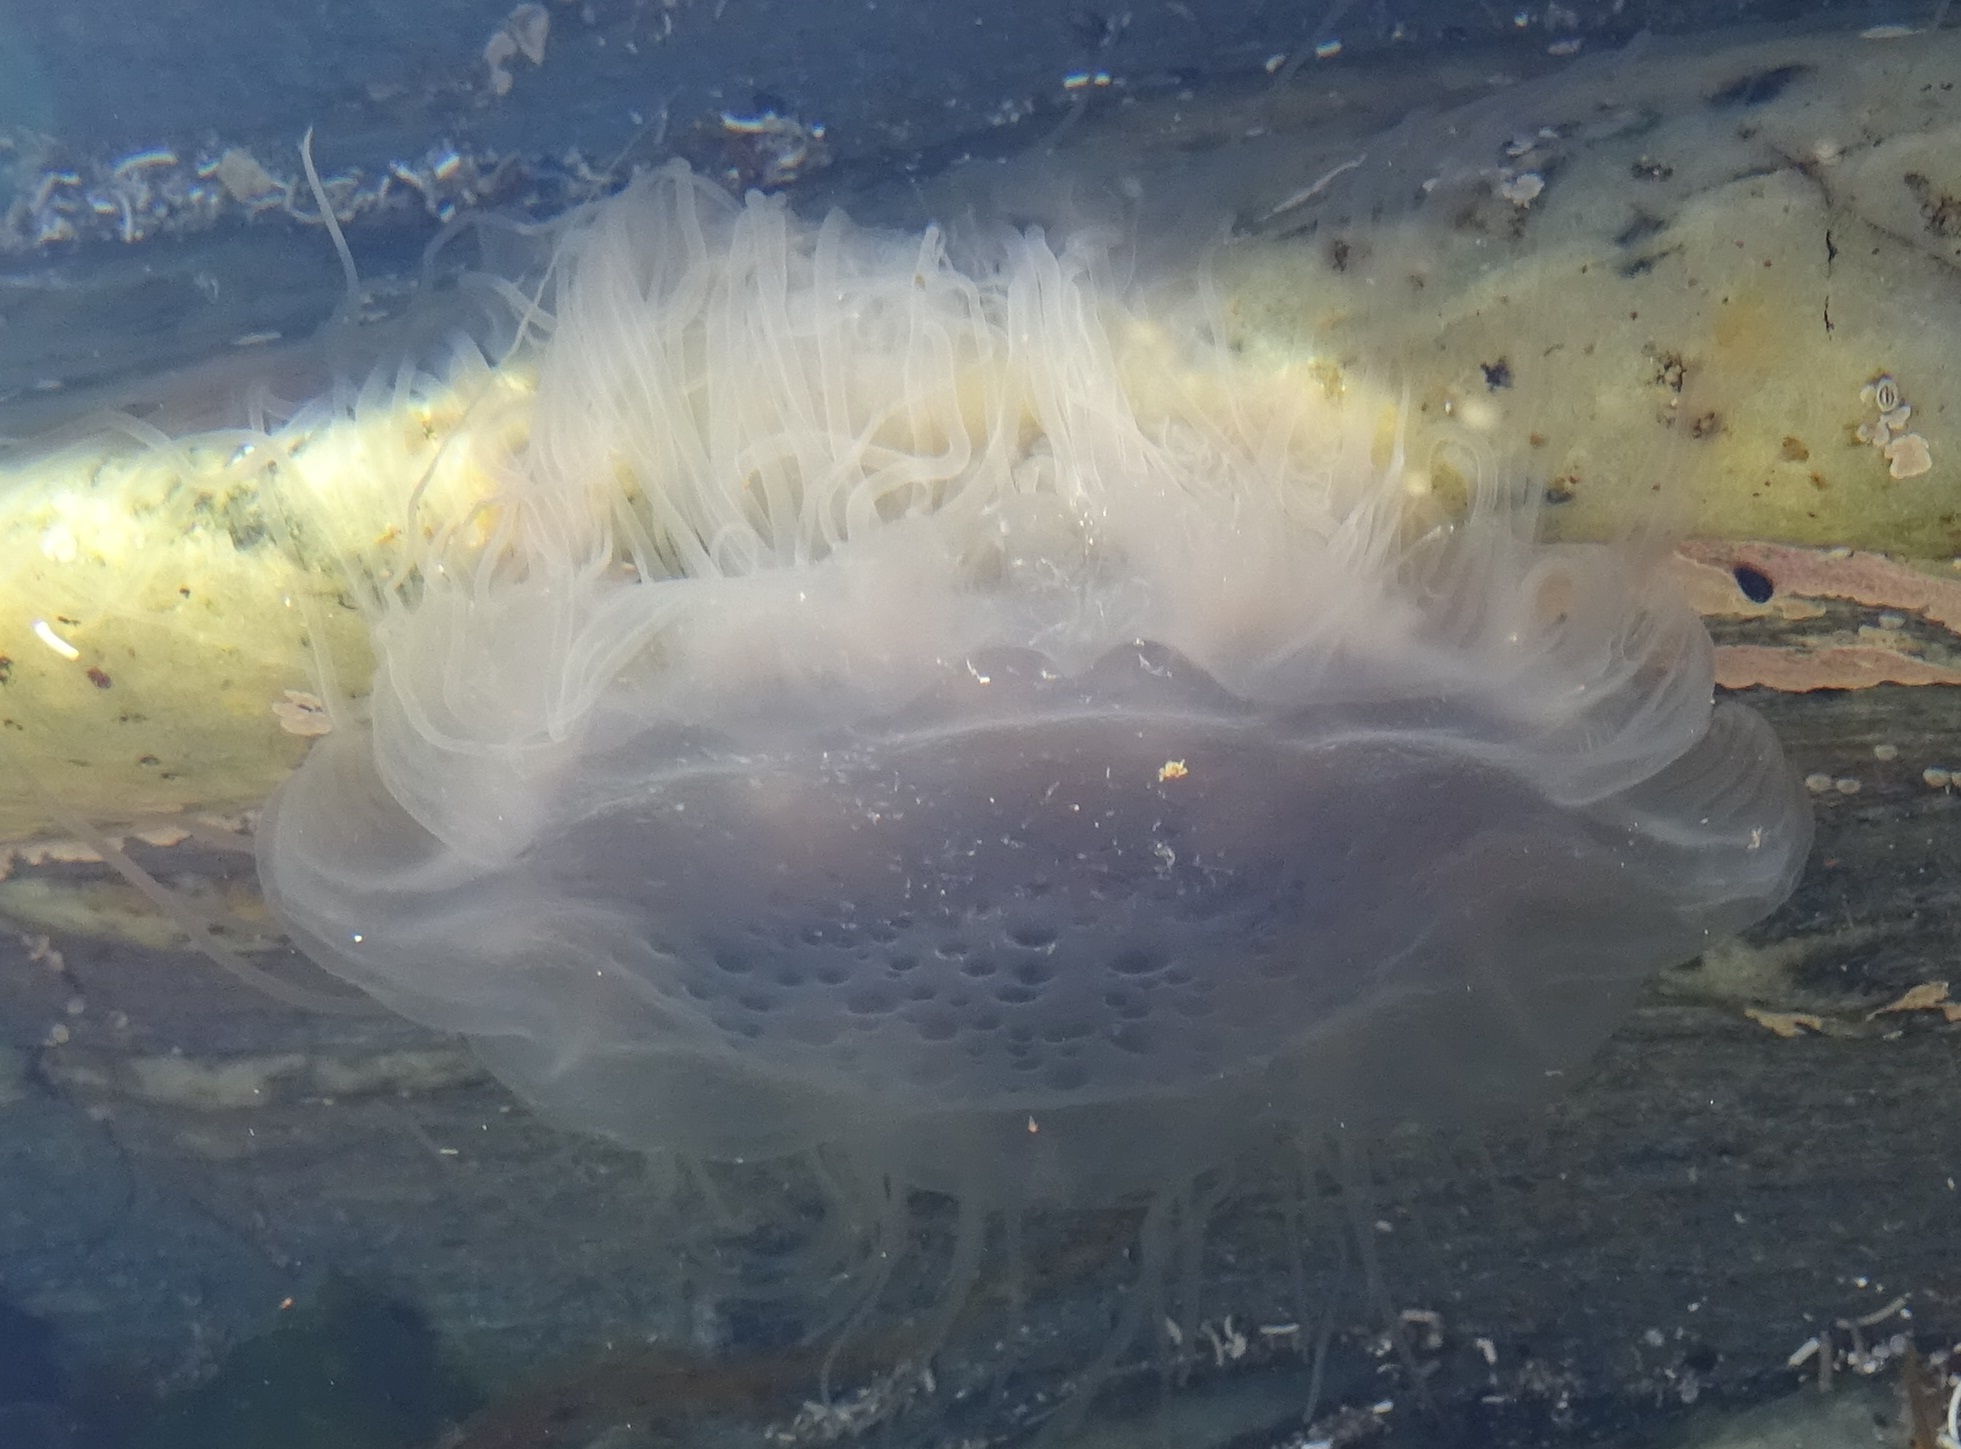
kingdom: Animalia
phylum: Cnidaria
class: Scyphozoa
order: Semaeostomeae
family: Cyaneidae
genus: Cyanea
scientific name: Cyanea lamarckii
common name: Blue jellyfish
